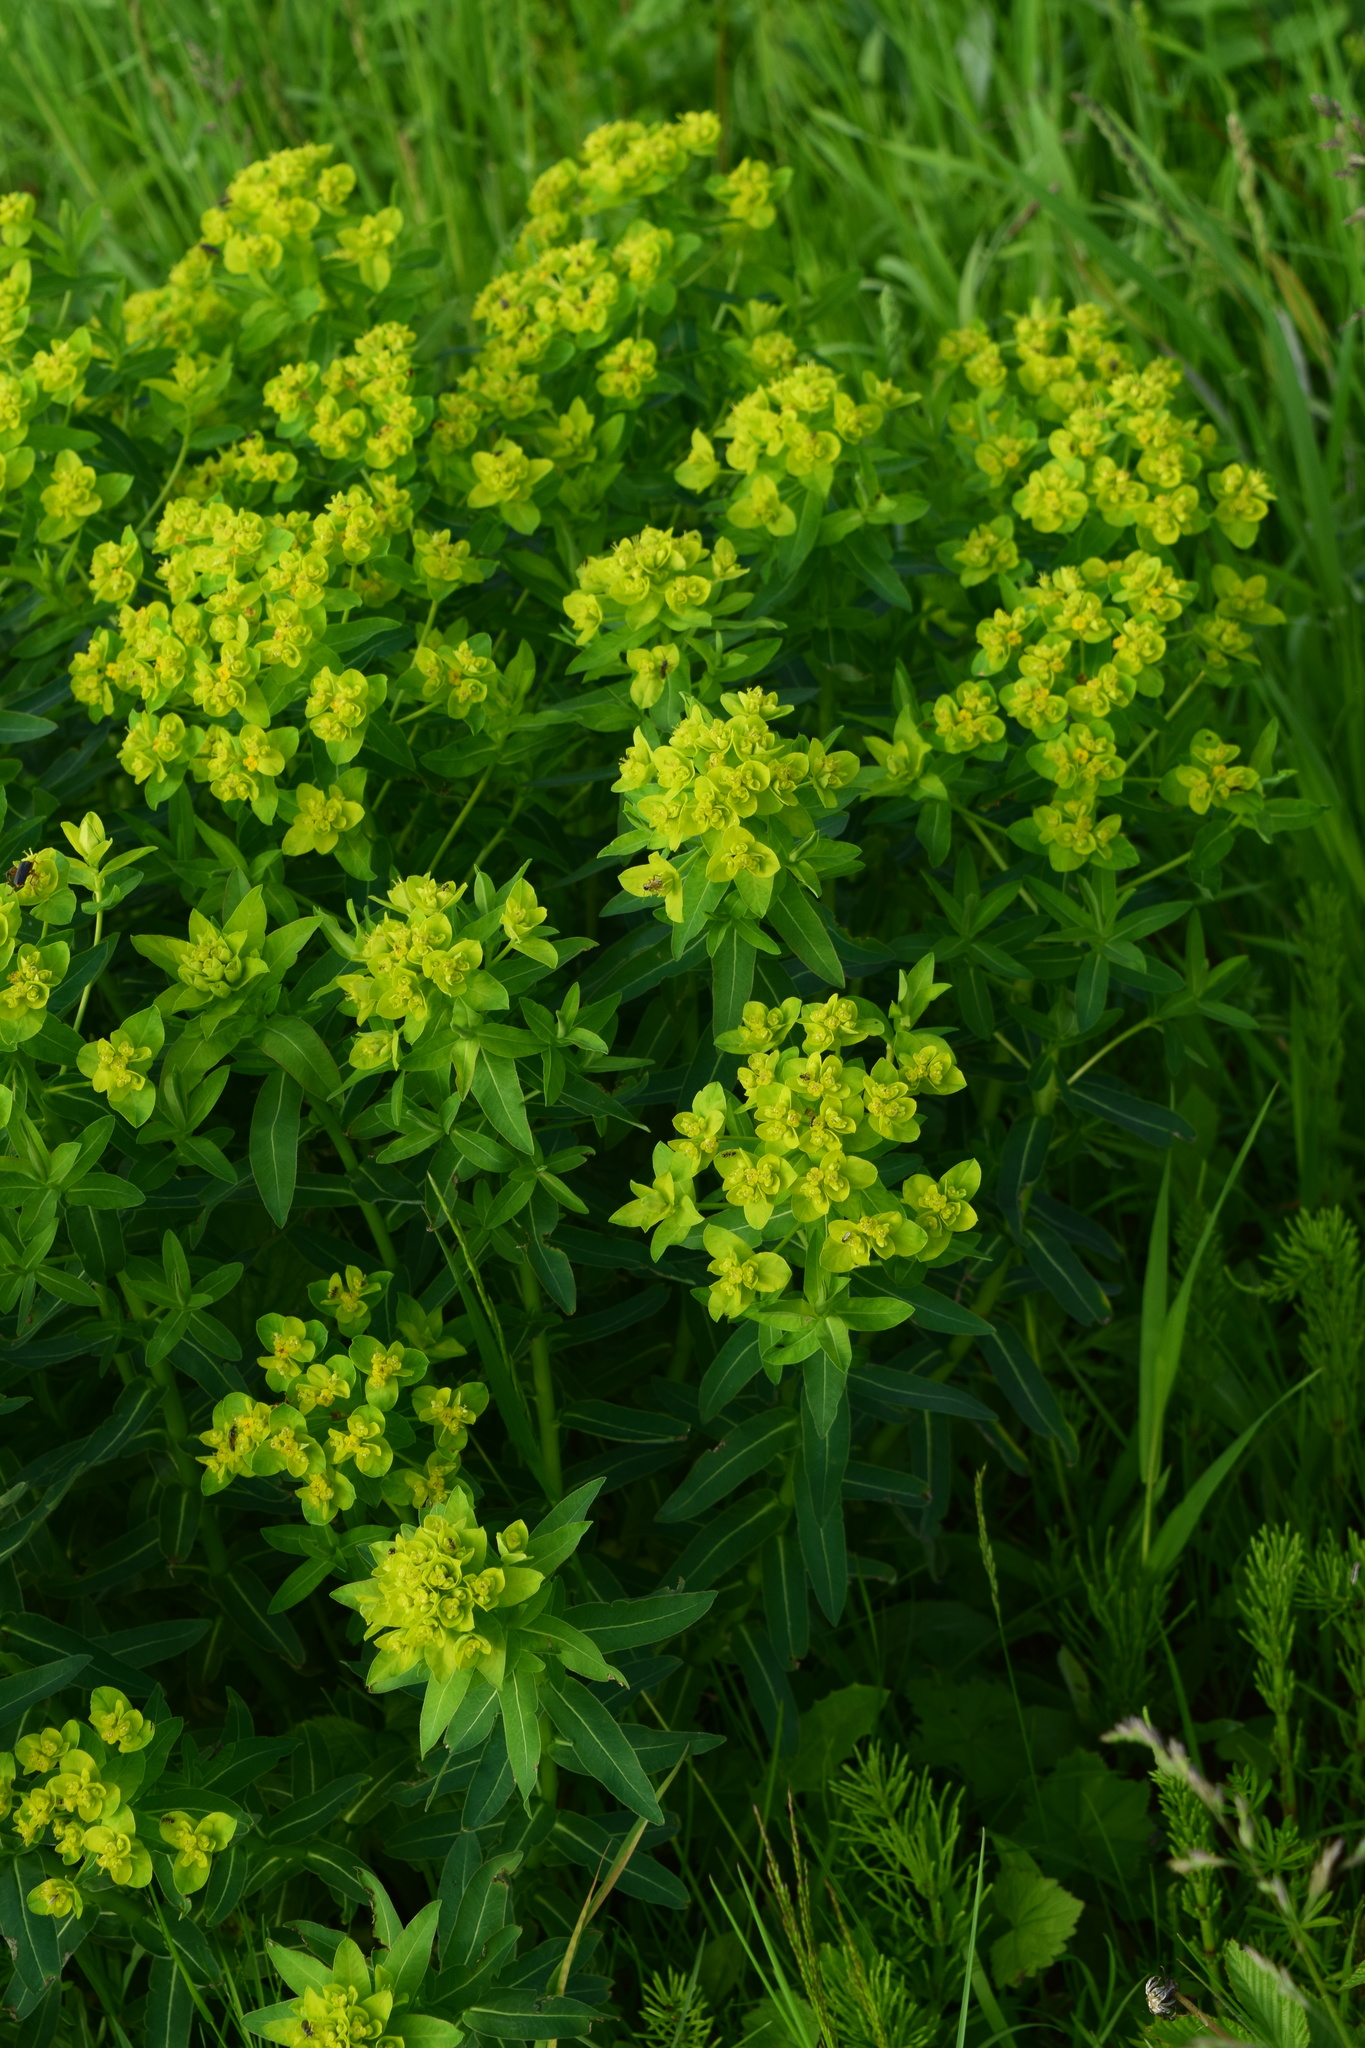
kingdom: Plantae
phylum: Tracheophyta
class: Magnoliopsida
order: Malpighiales
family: Euphorbiaceae
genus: Euphorbia
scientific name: Euphorbia semivillosa
